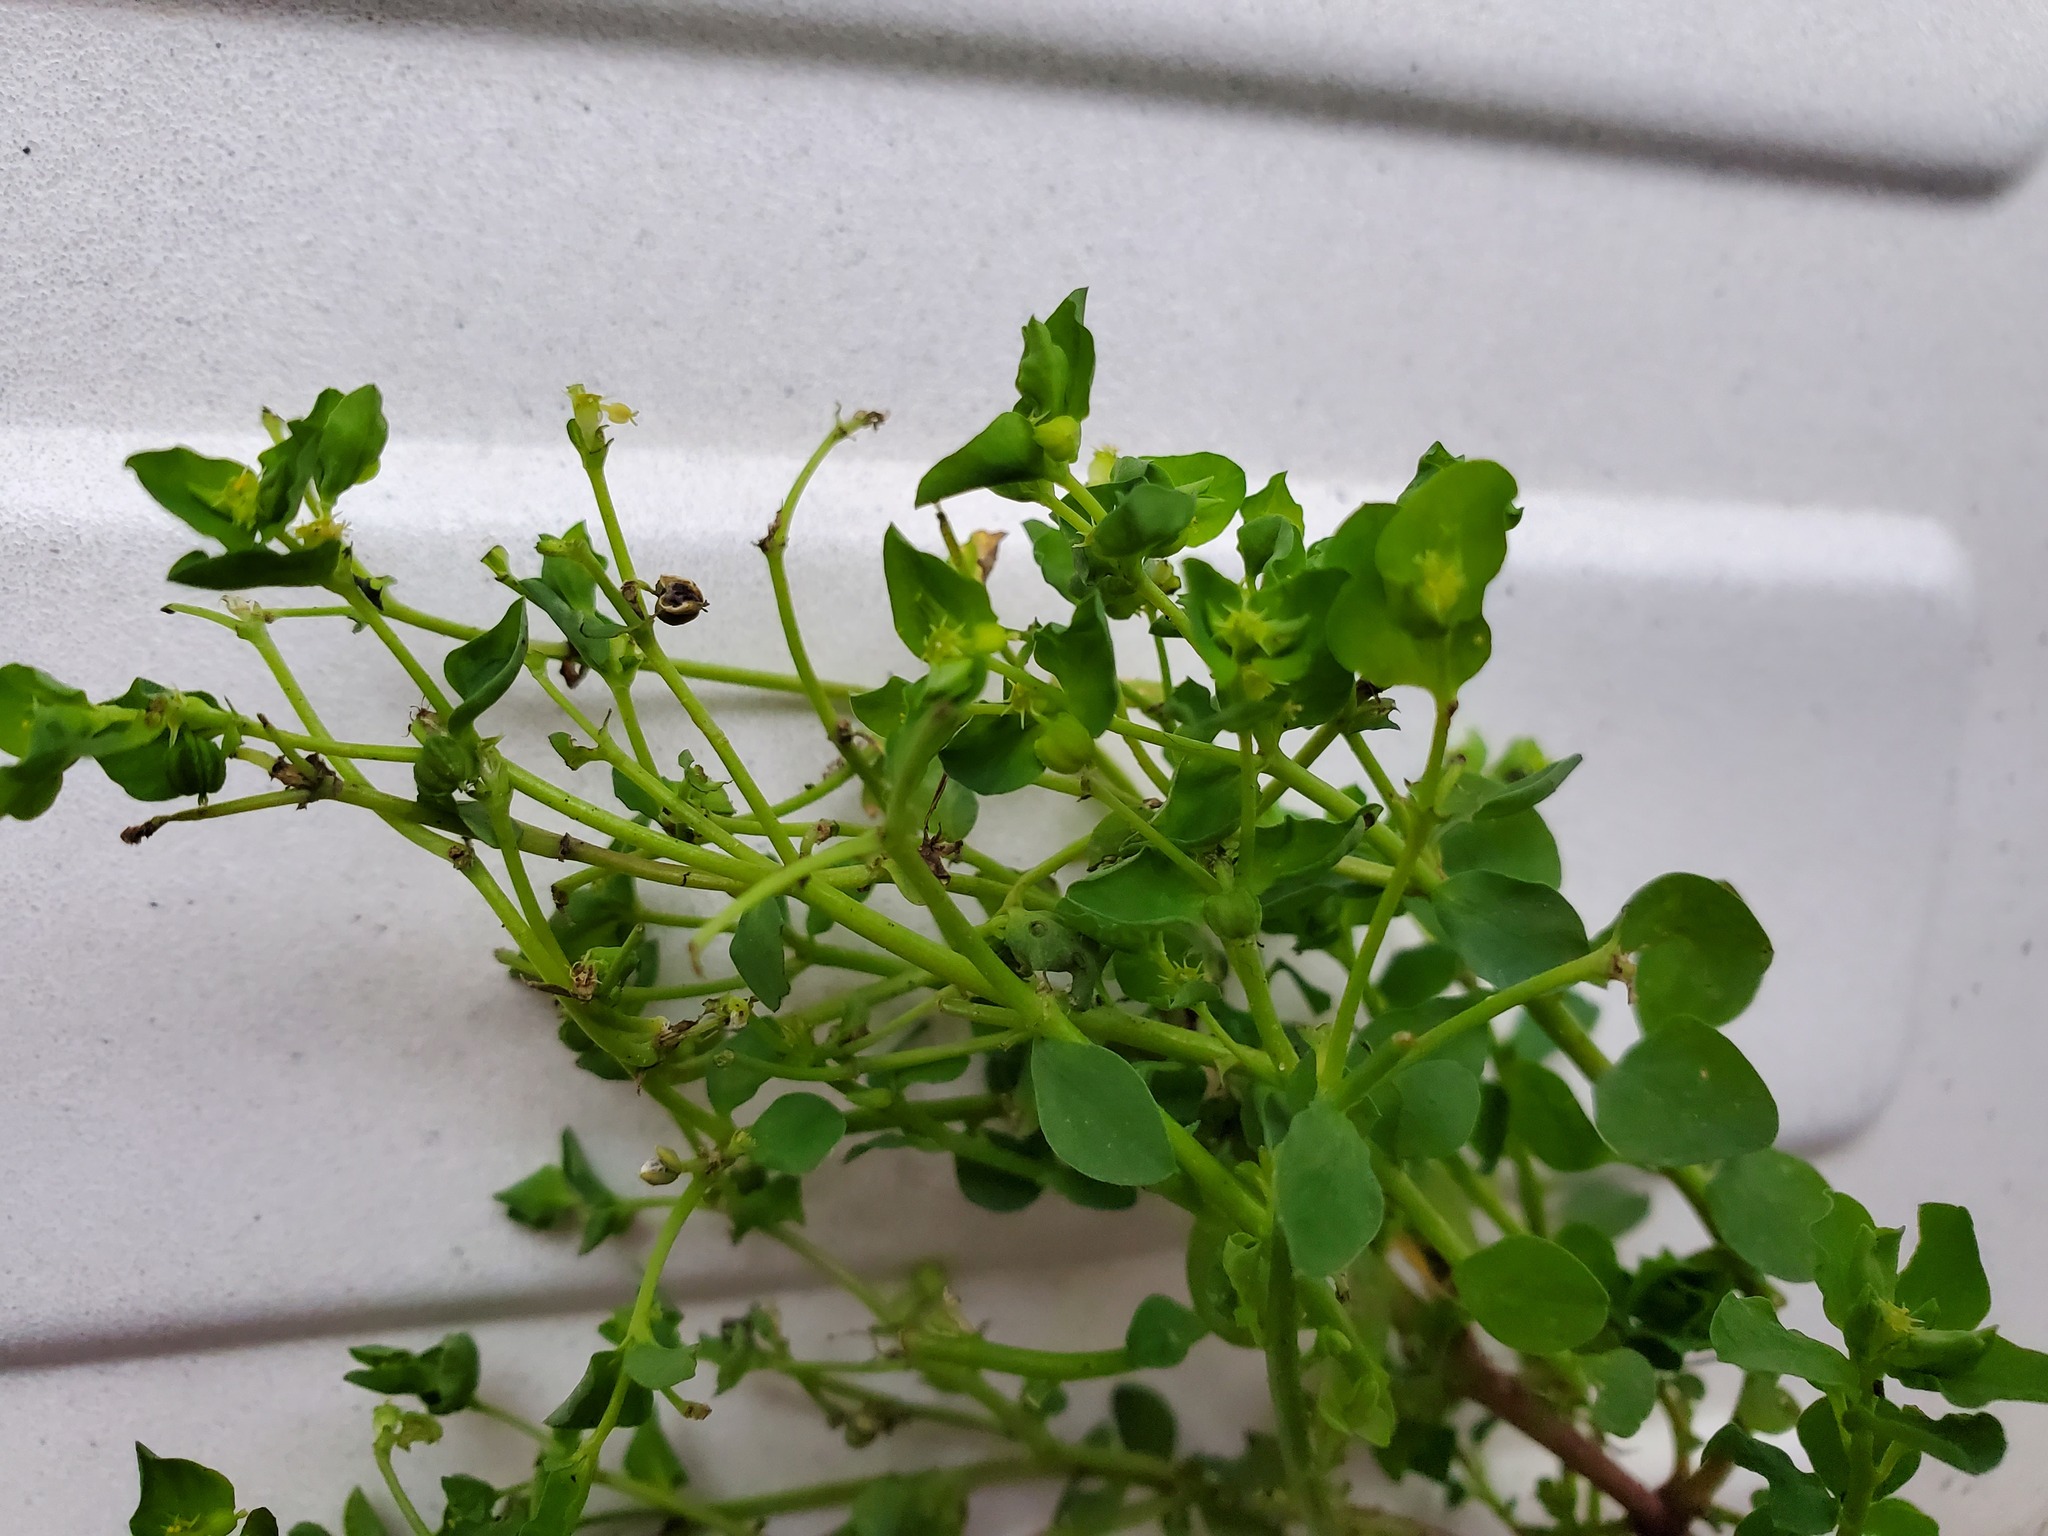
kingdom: Plantae
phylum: Tracheophyta
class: Magnoliopsida
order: Malpighiales
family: Euphorbiaceae
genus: Euphorbia
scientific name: Euphorbia peplus
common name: Petty spurge
